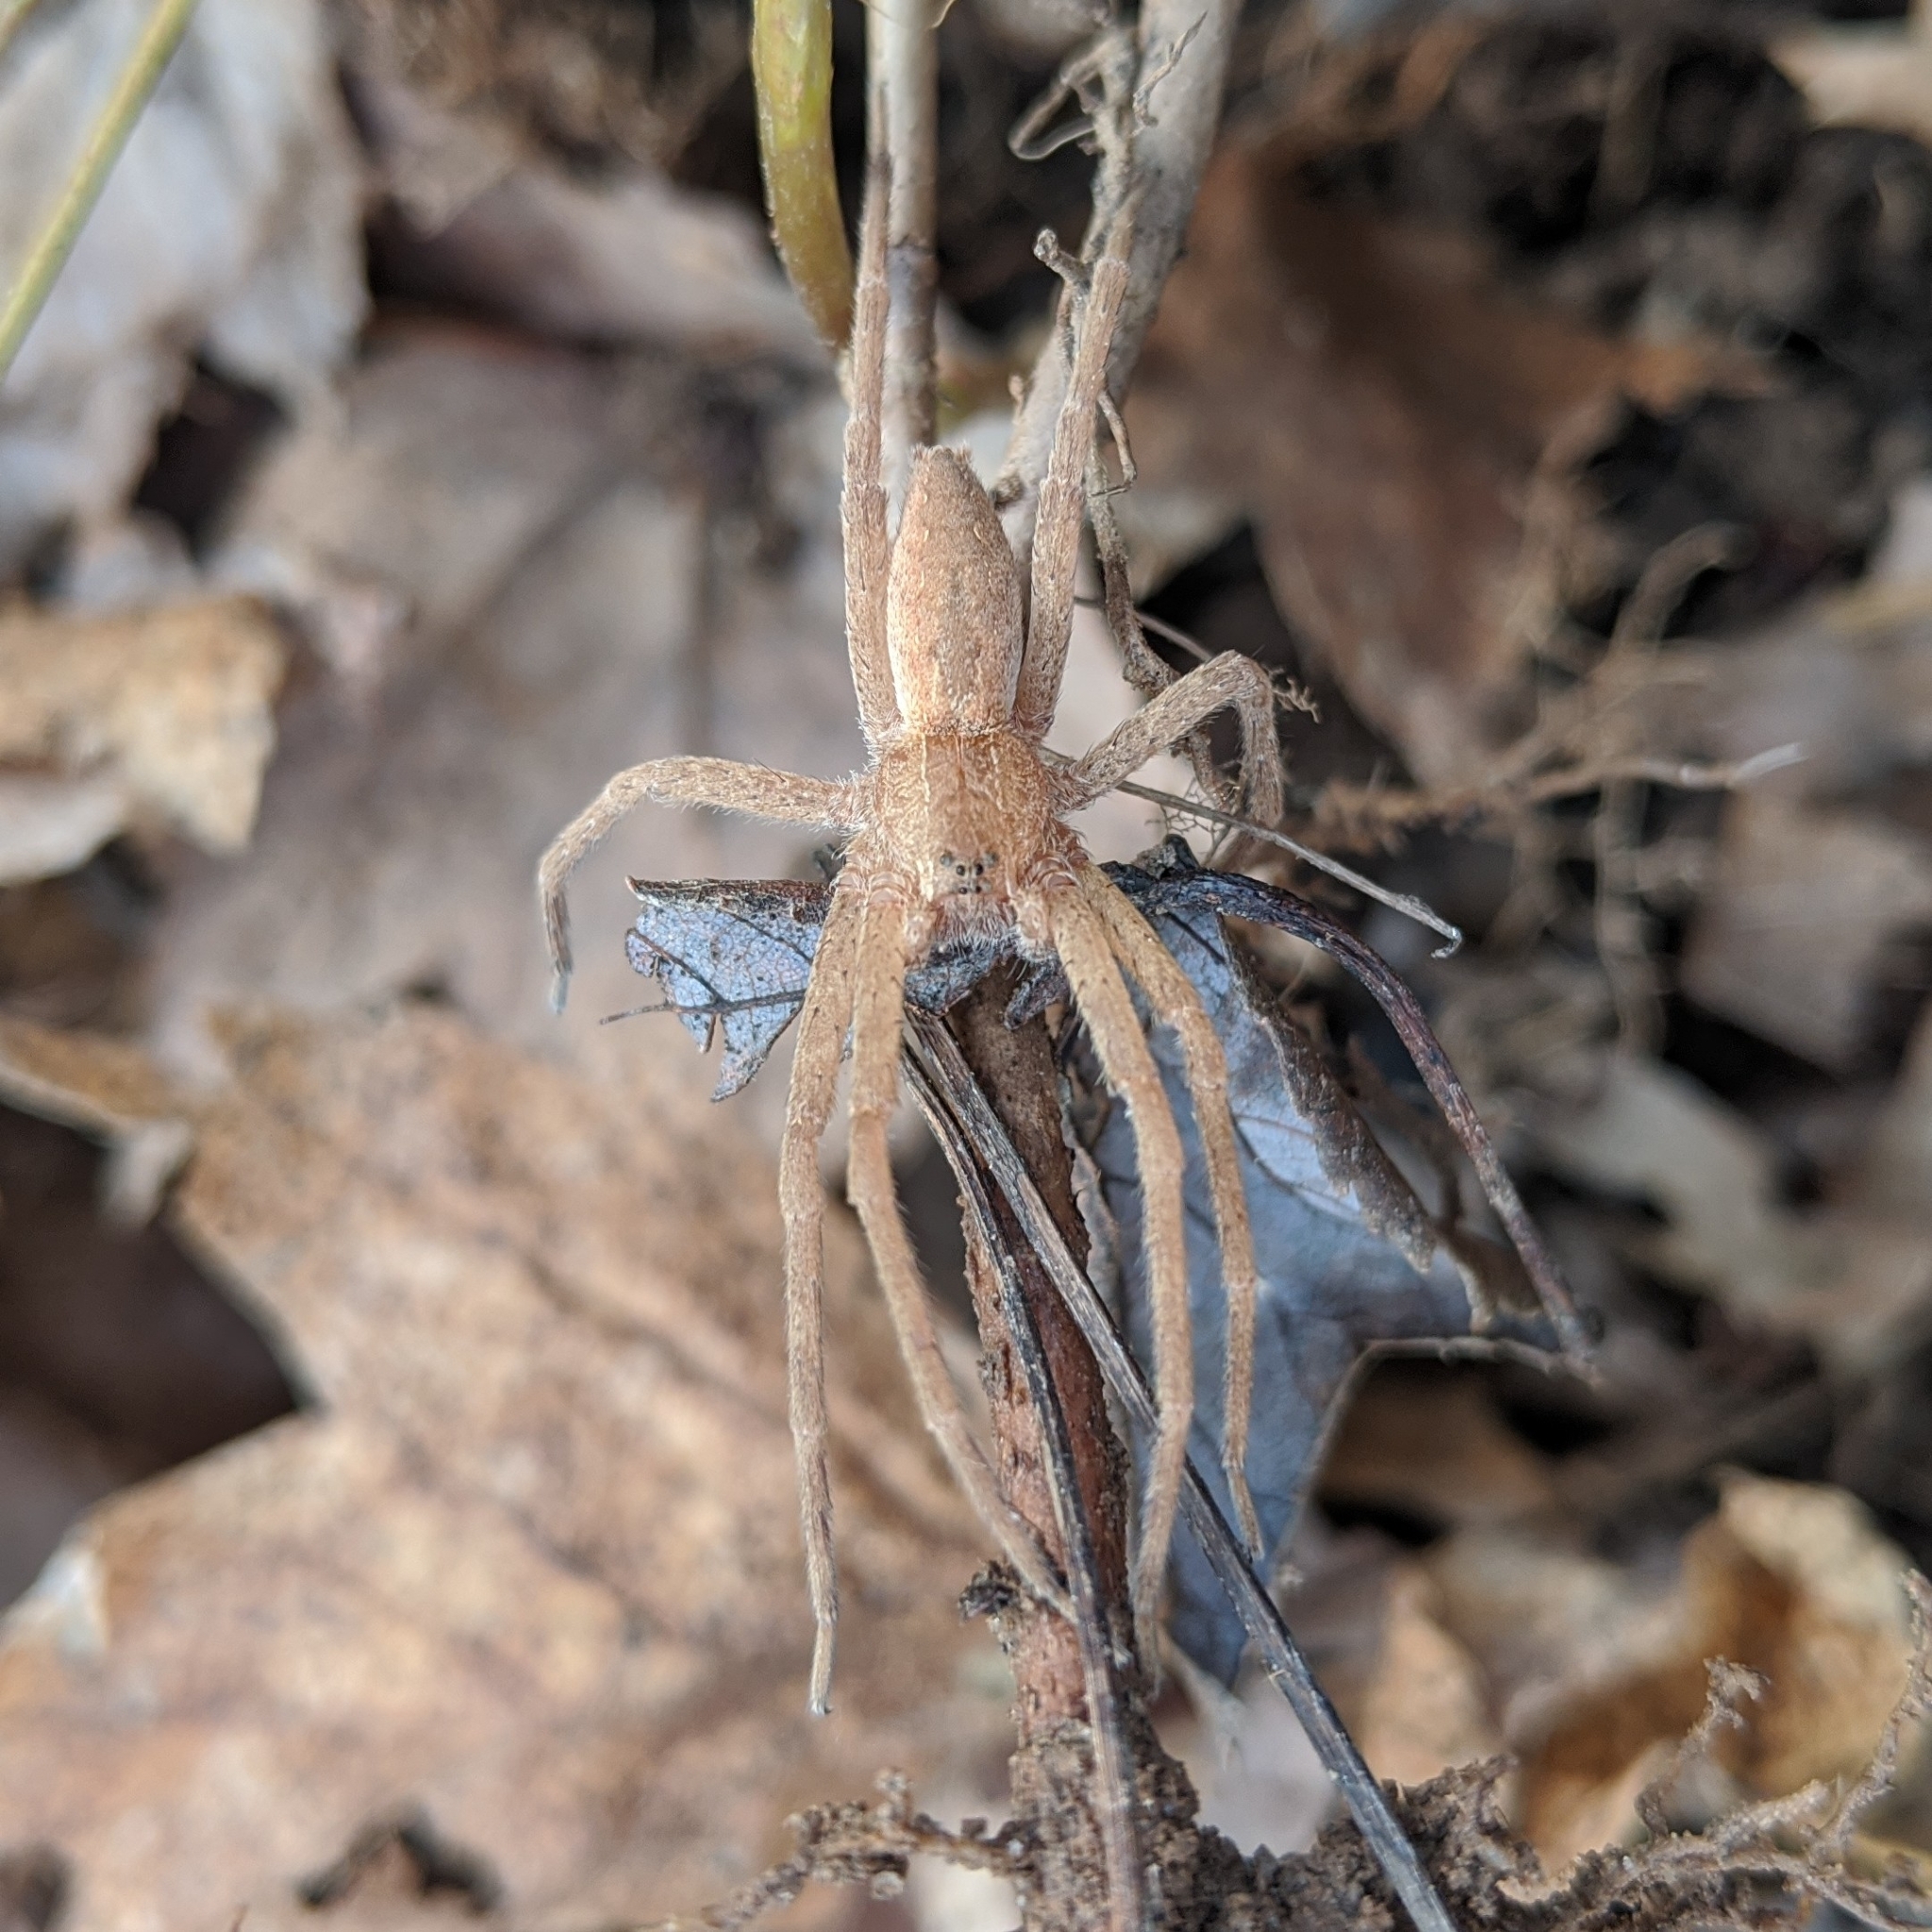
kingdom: Animalia
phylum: Arthropoda
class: Arachnida
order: Araneae
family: Pisauridae
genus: Pisaurina
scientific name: Pisaurina mira
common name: American nursery web spider
